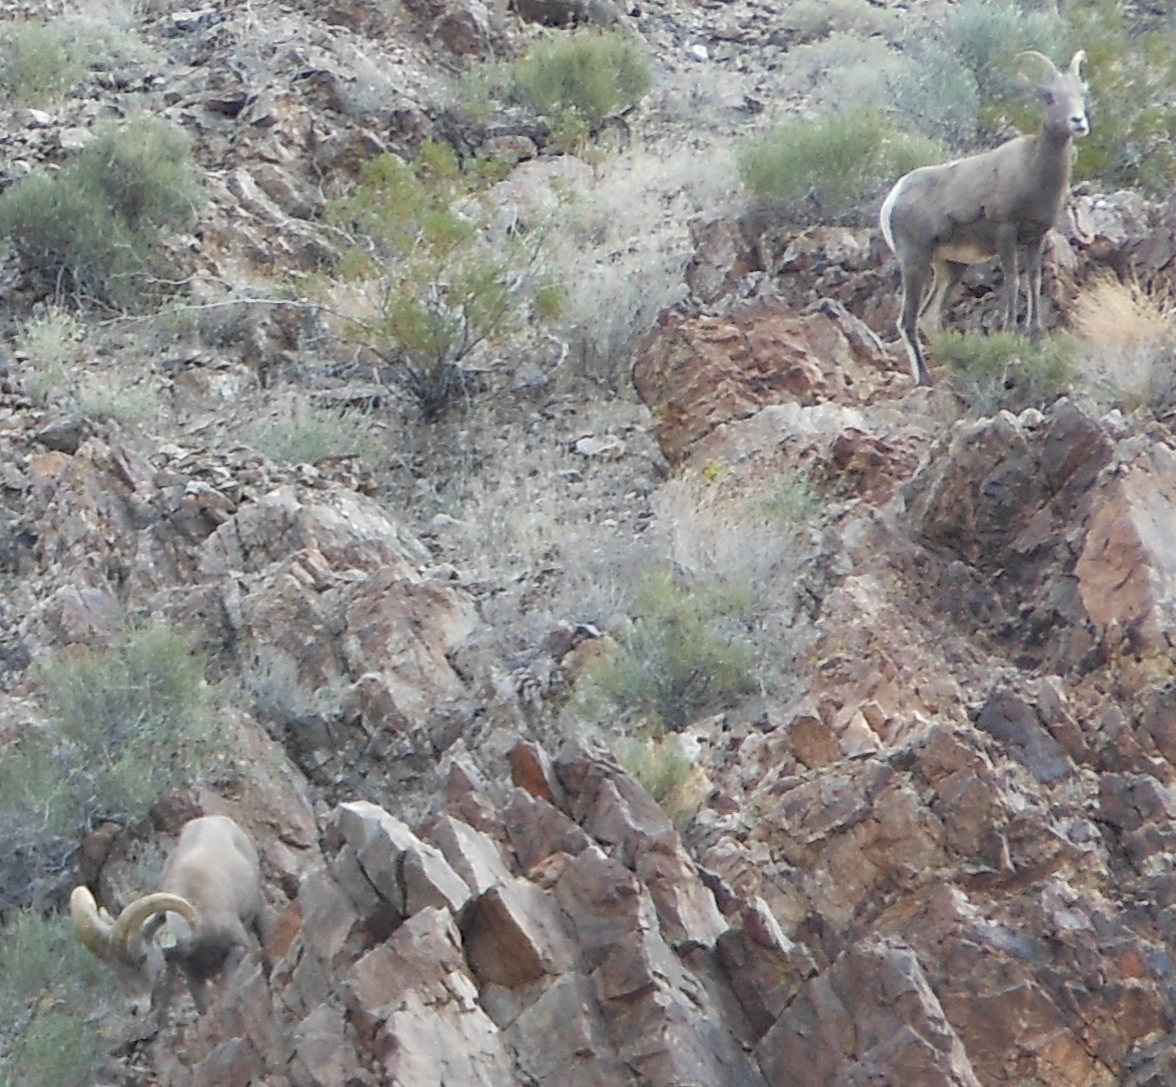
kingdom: Animalia
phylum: Chordata
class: Mammalia
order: Artiodactyla
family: Bovidae
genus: Ovis
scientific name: Ovis canadensis
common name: Bighorn sheep
